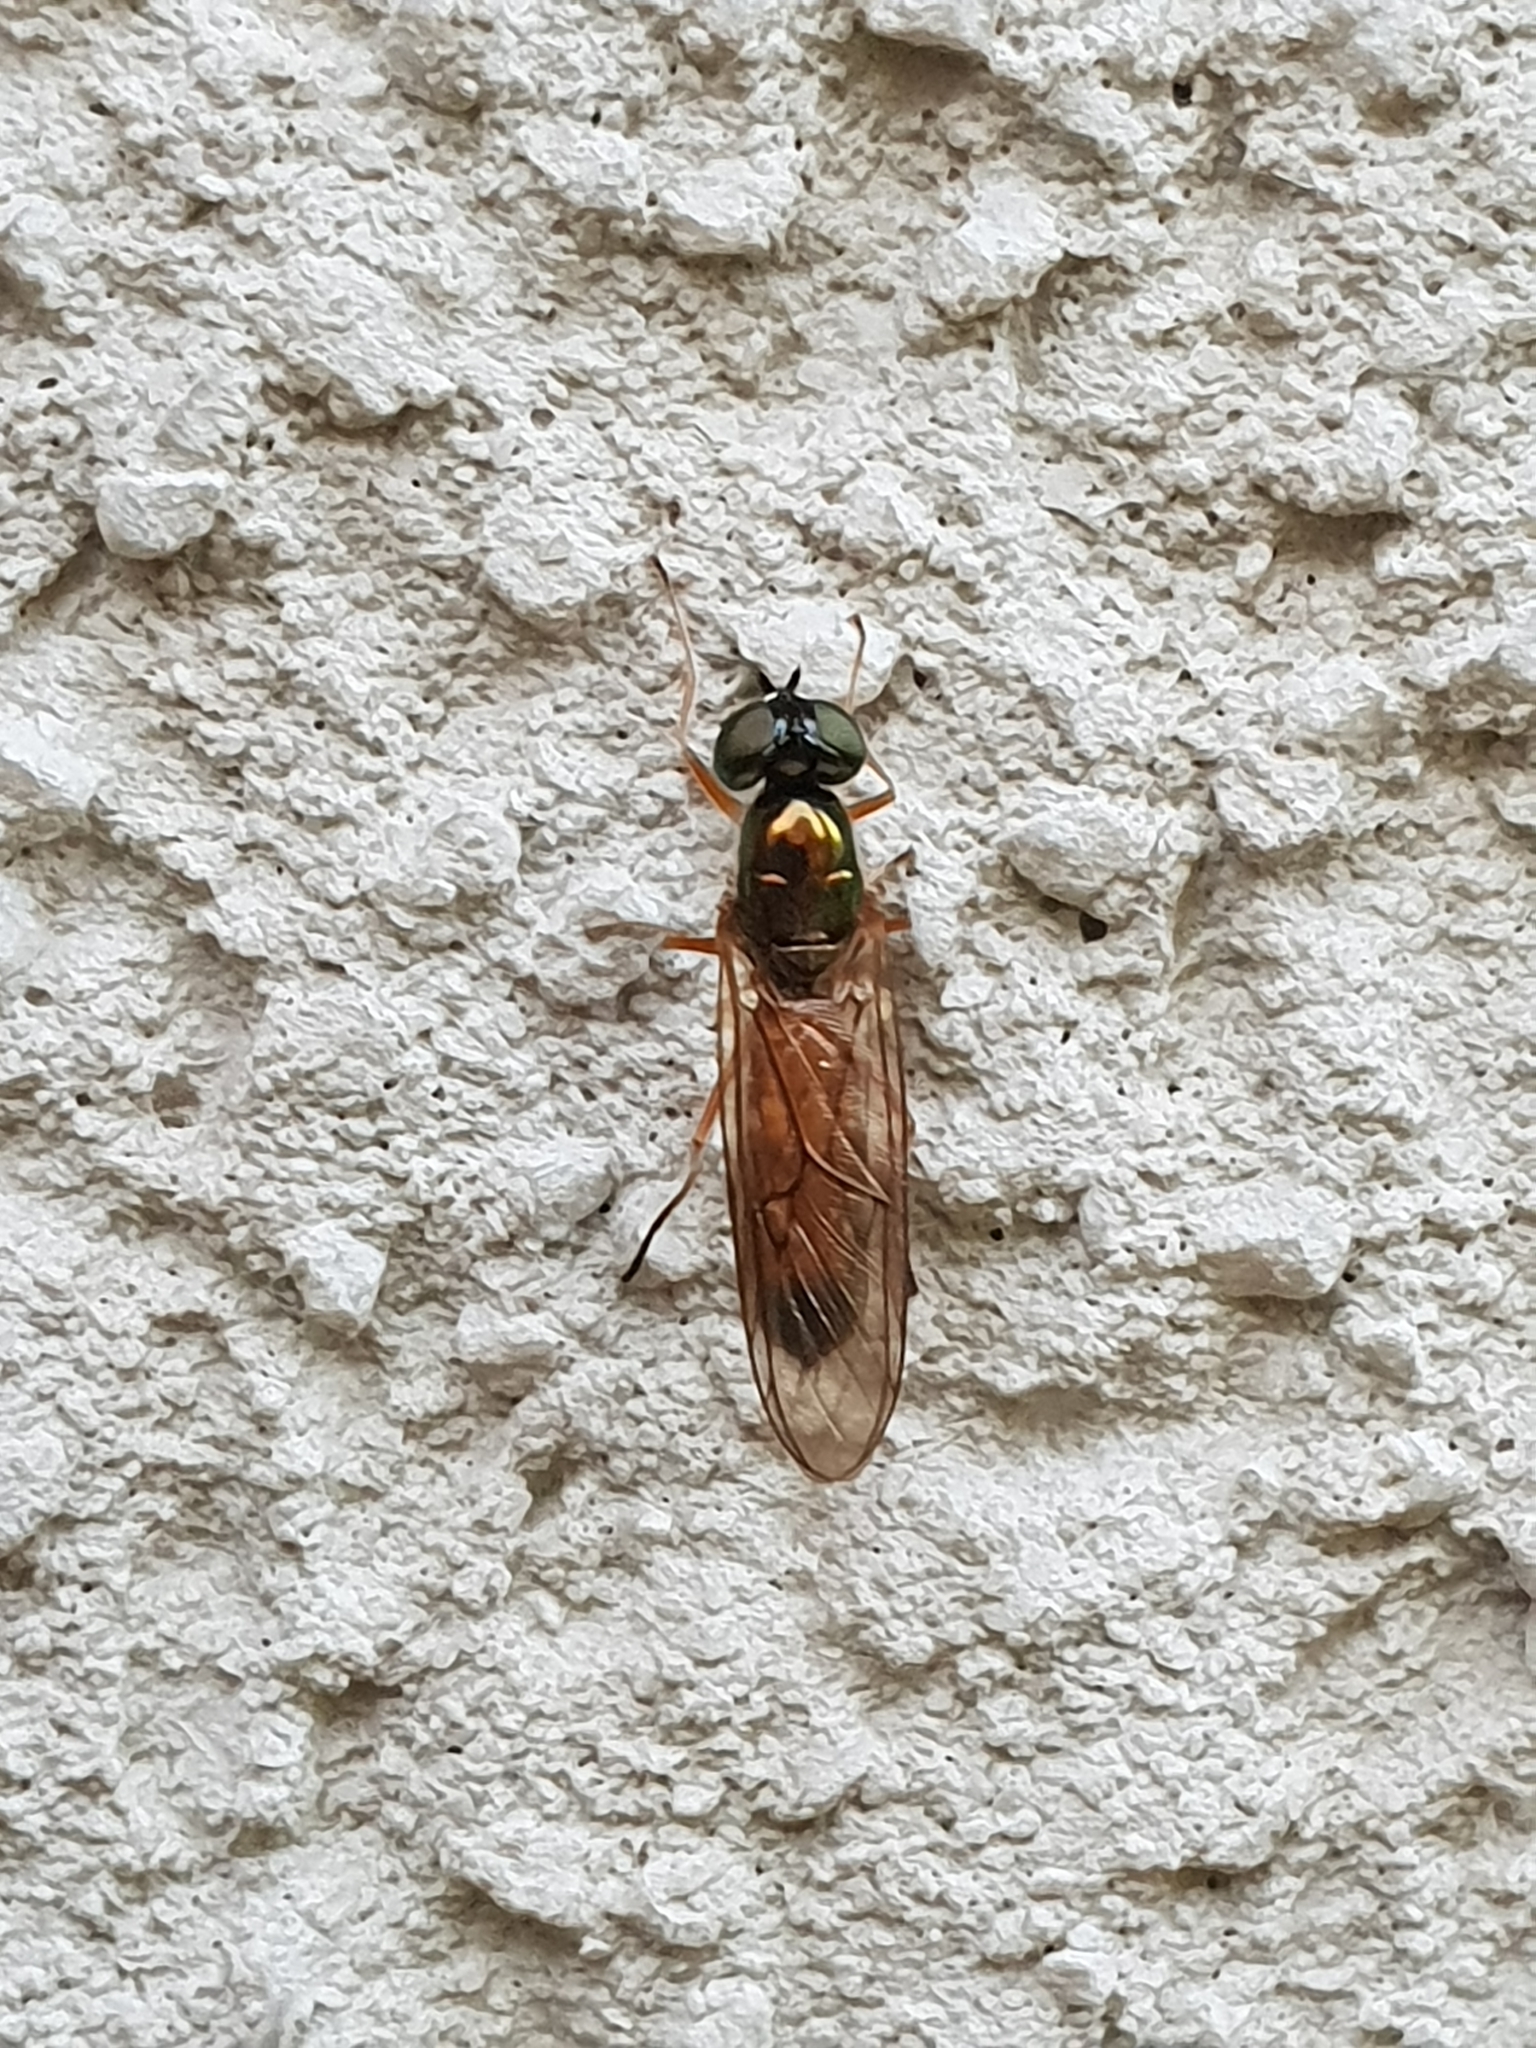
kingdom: Animalia
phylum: Arthropoda
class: Insecta
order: Diptera
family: Stratiomyidae
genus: Sargus
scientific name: Sargus bipunctatus
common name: Twin-spot centurion
